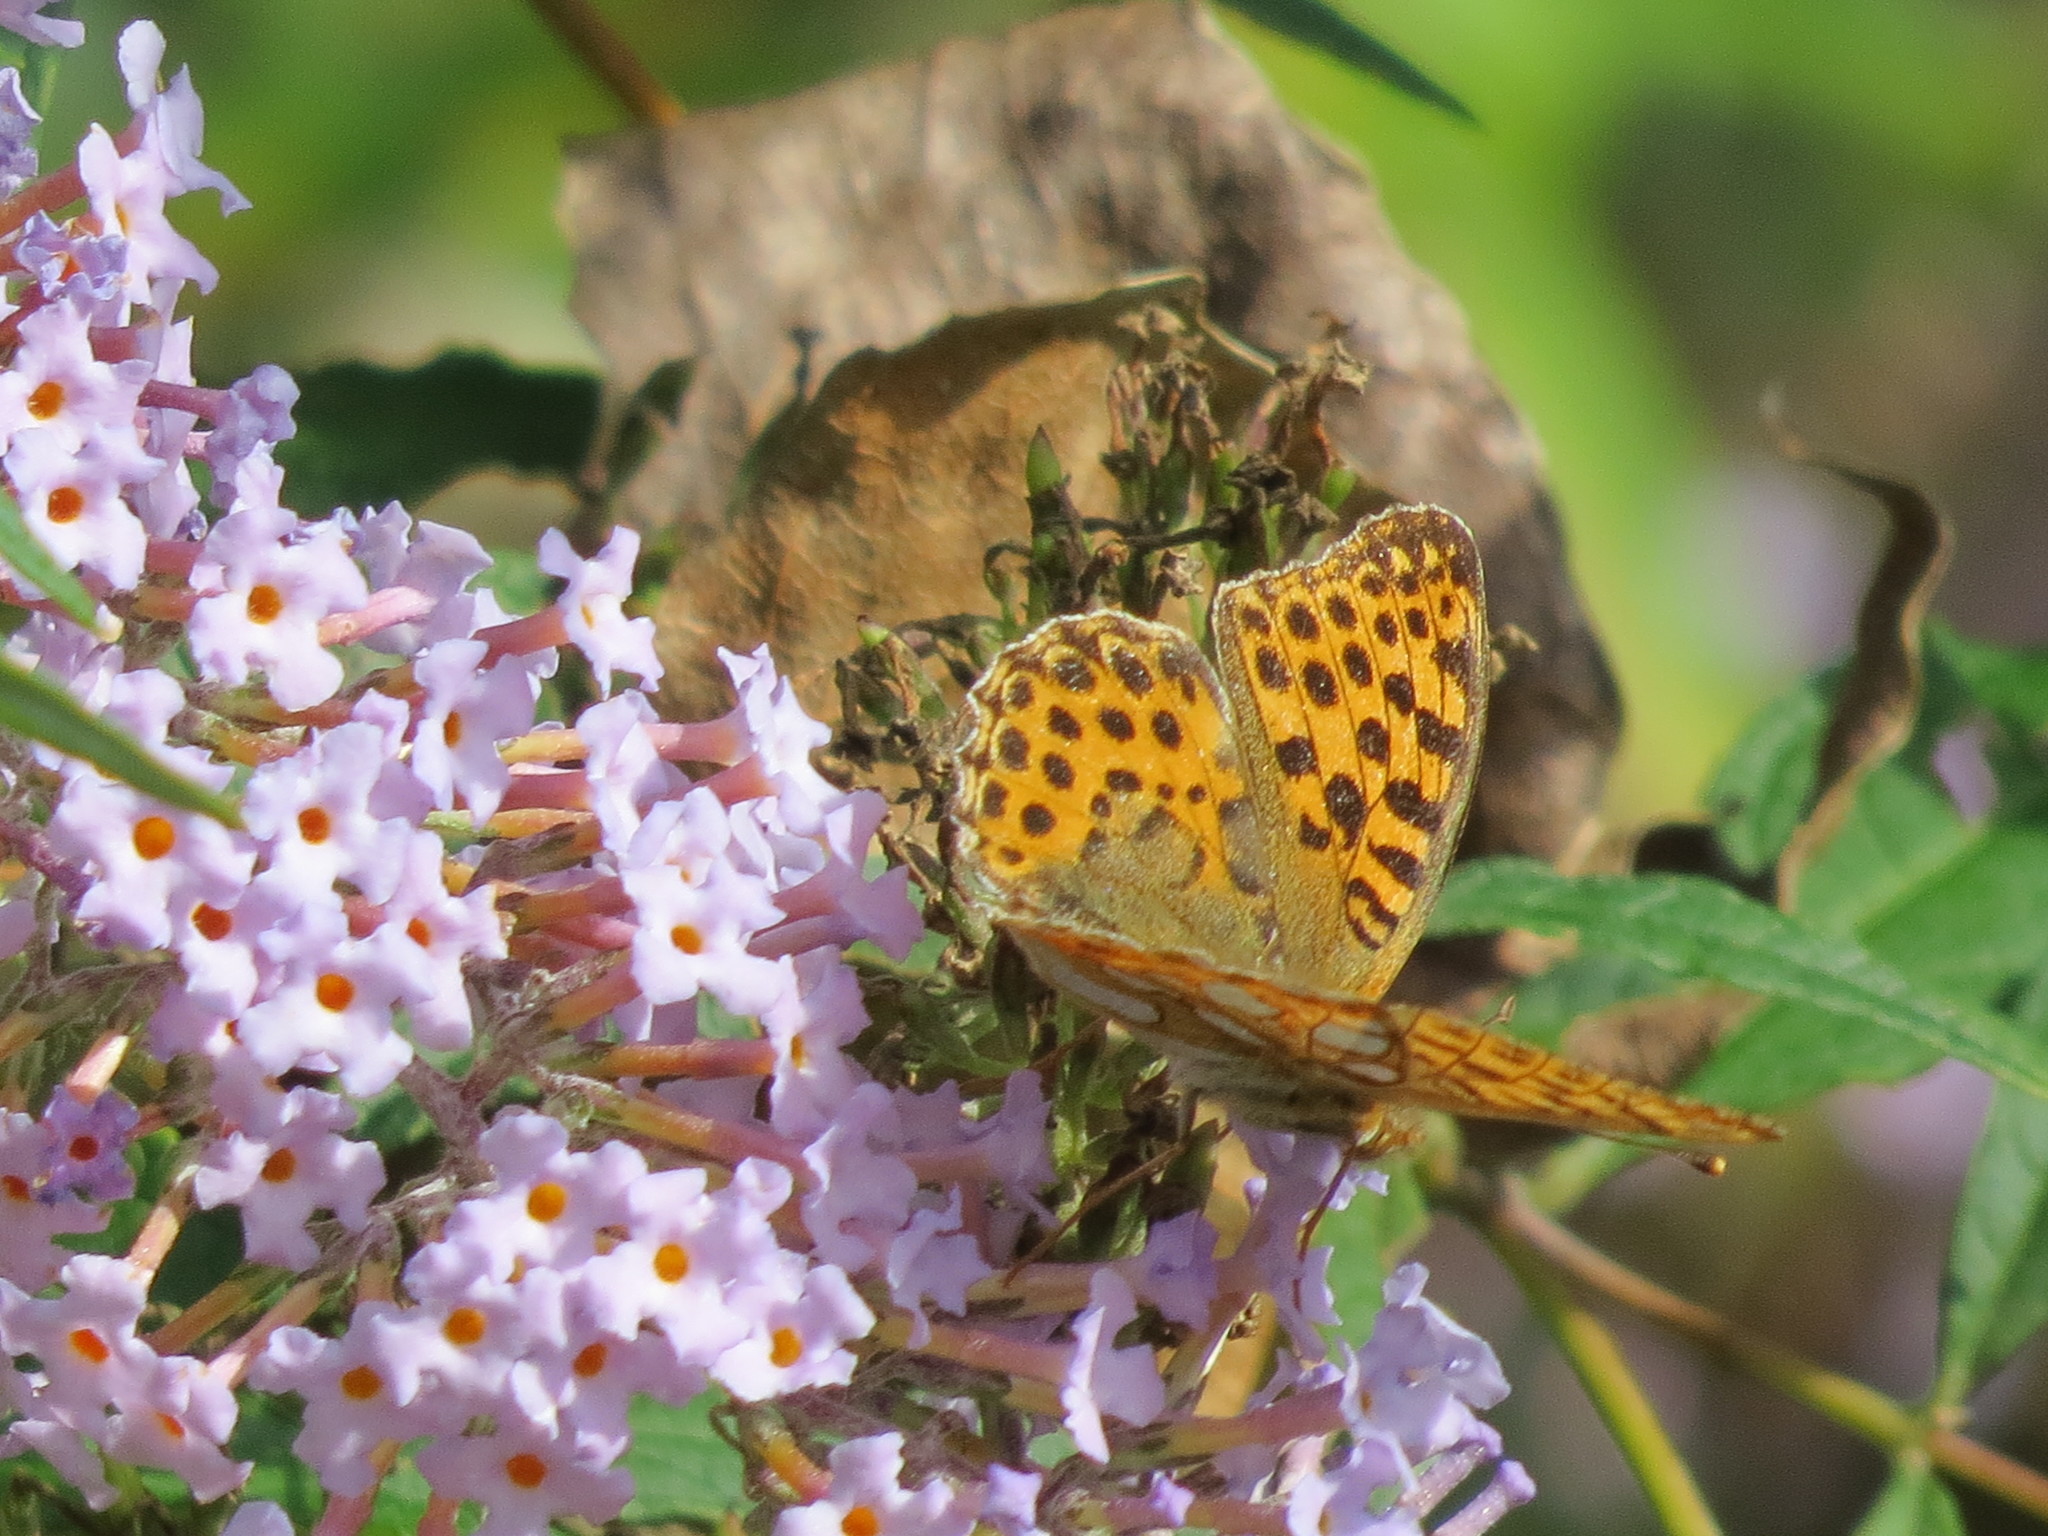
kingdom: Animalia
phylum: Arthropoda
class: Insecta
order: Lepidoptera
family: Nymphalidae
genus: Issoria
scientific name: Issoria lathonia
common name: Queen of spain fritillary
